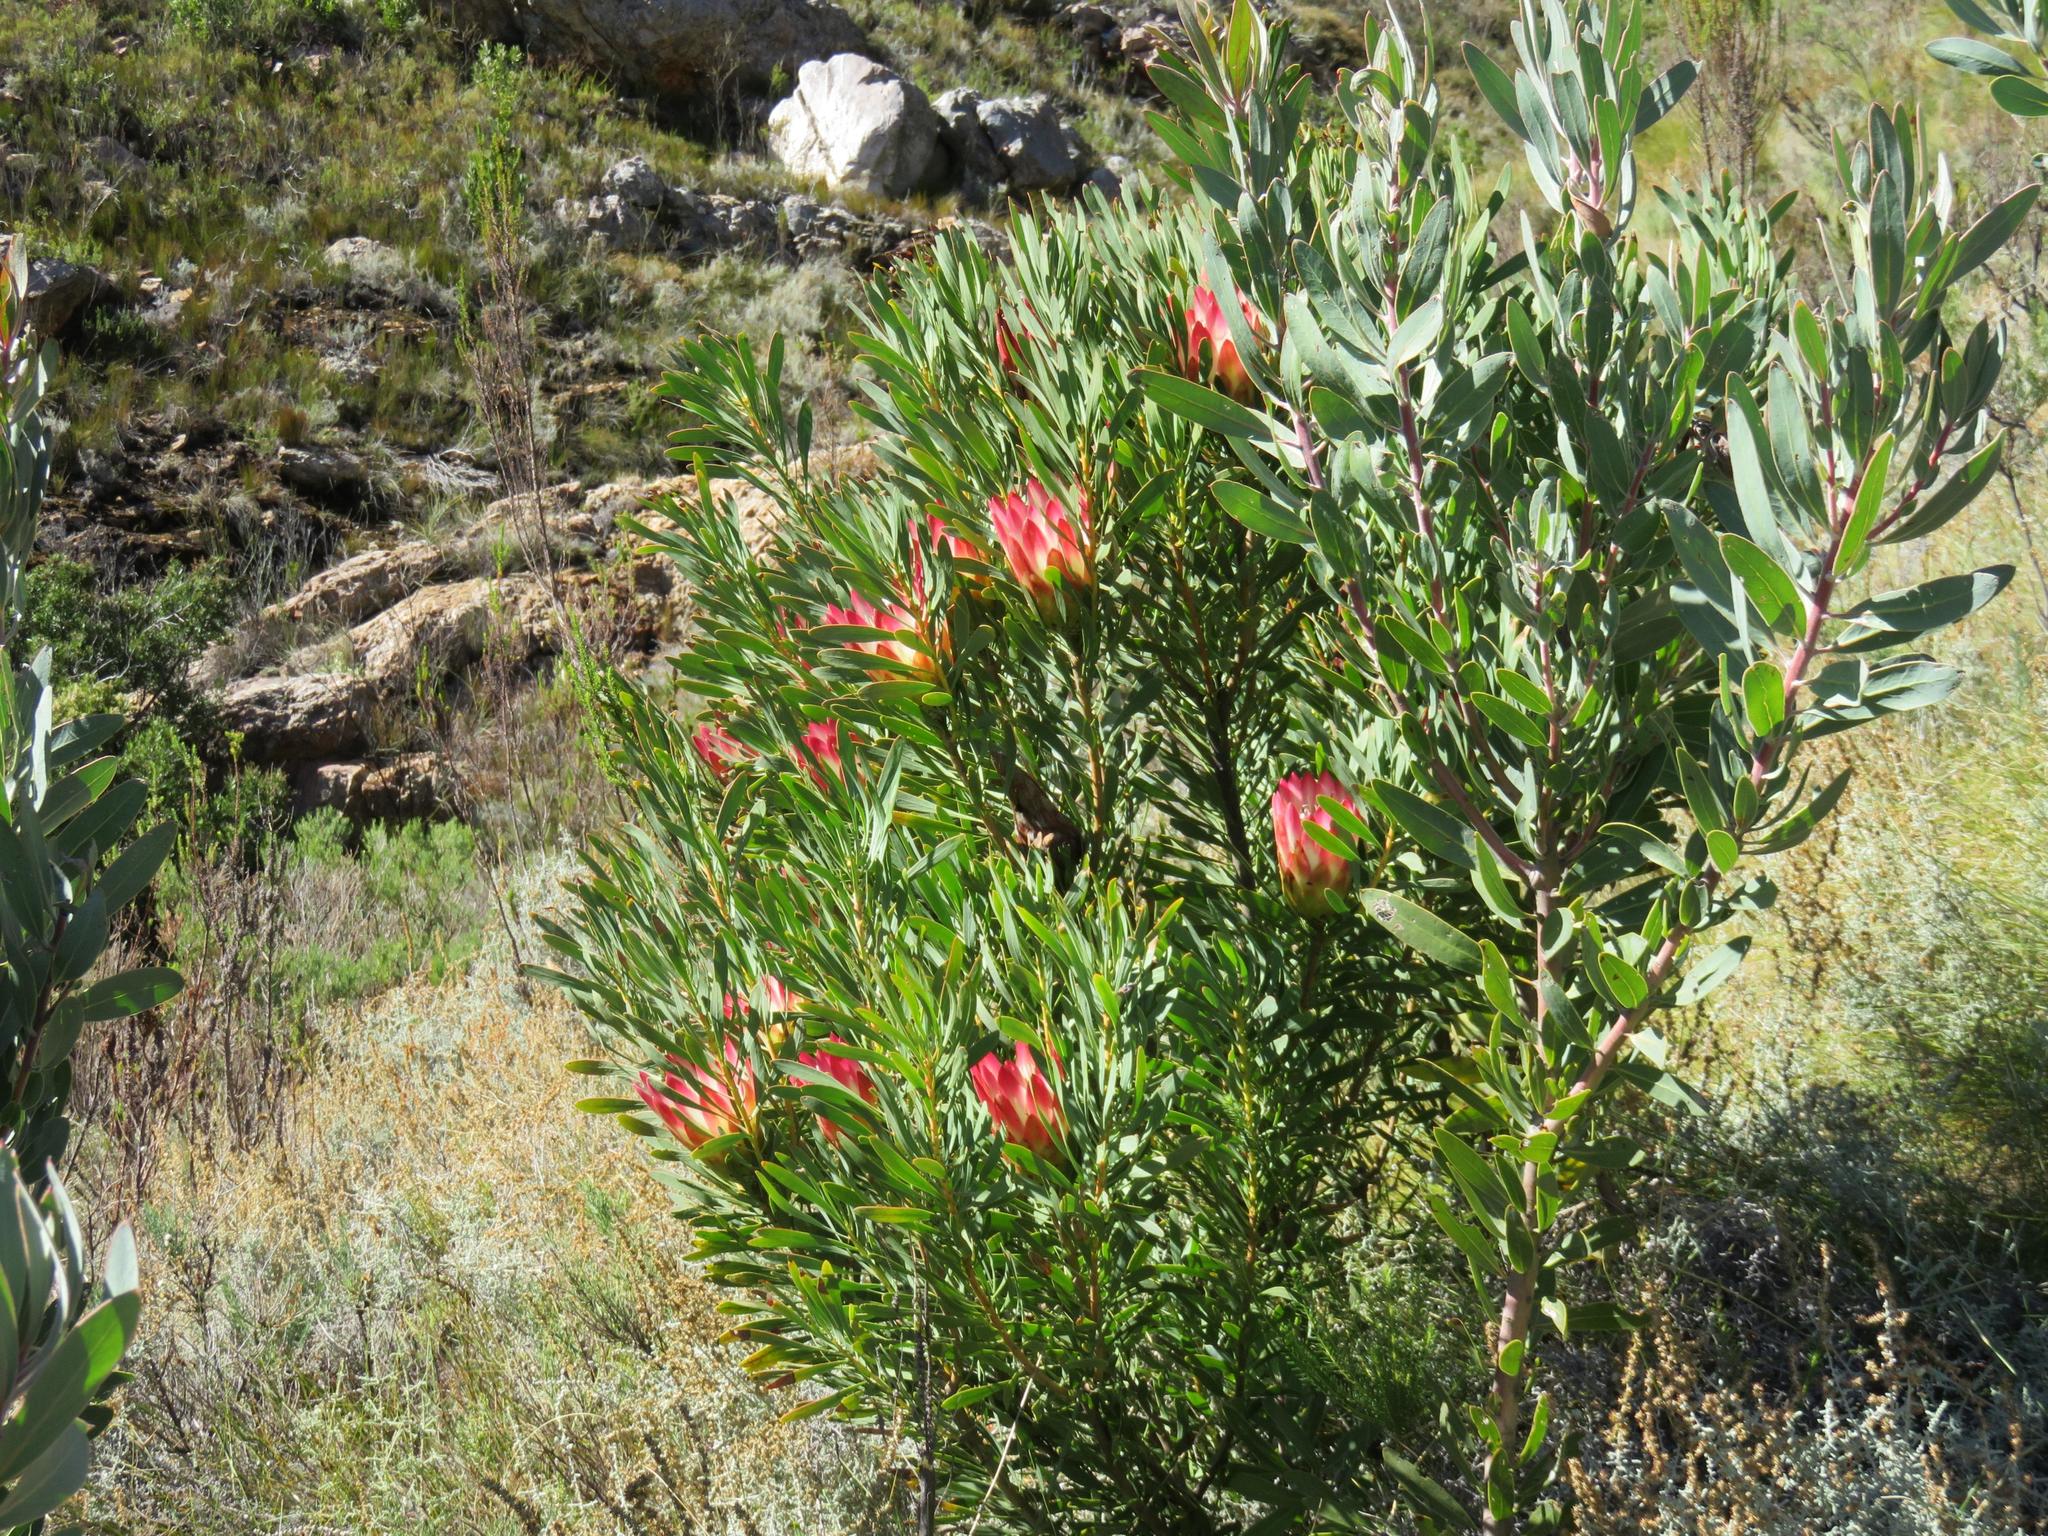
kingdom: Plantae
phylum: Tracheophyta
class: Magnoliopsida
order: Proteales
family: Proteaceae
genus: Protea
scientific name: Protea repens
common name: Sugarbush
